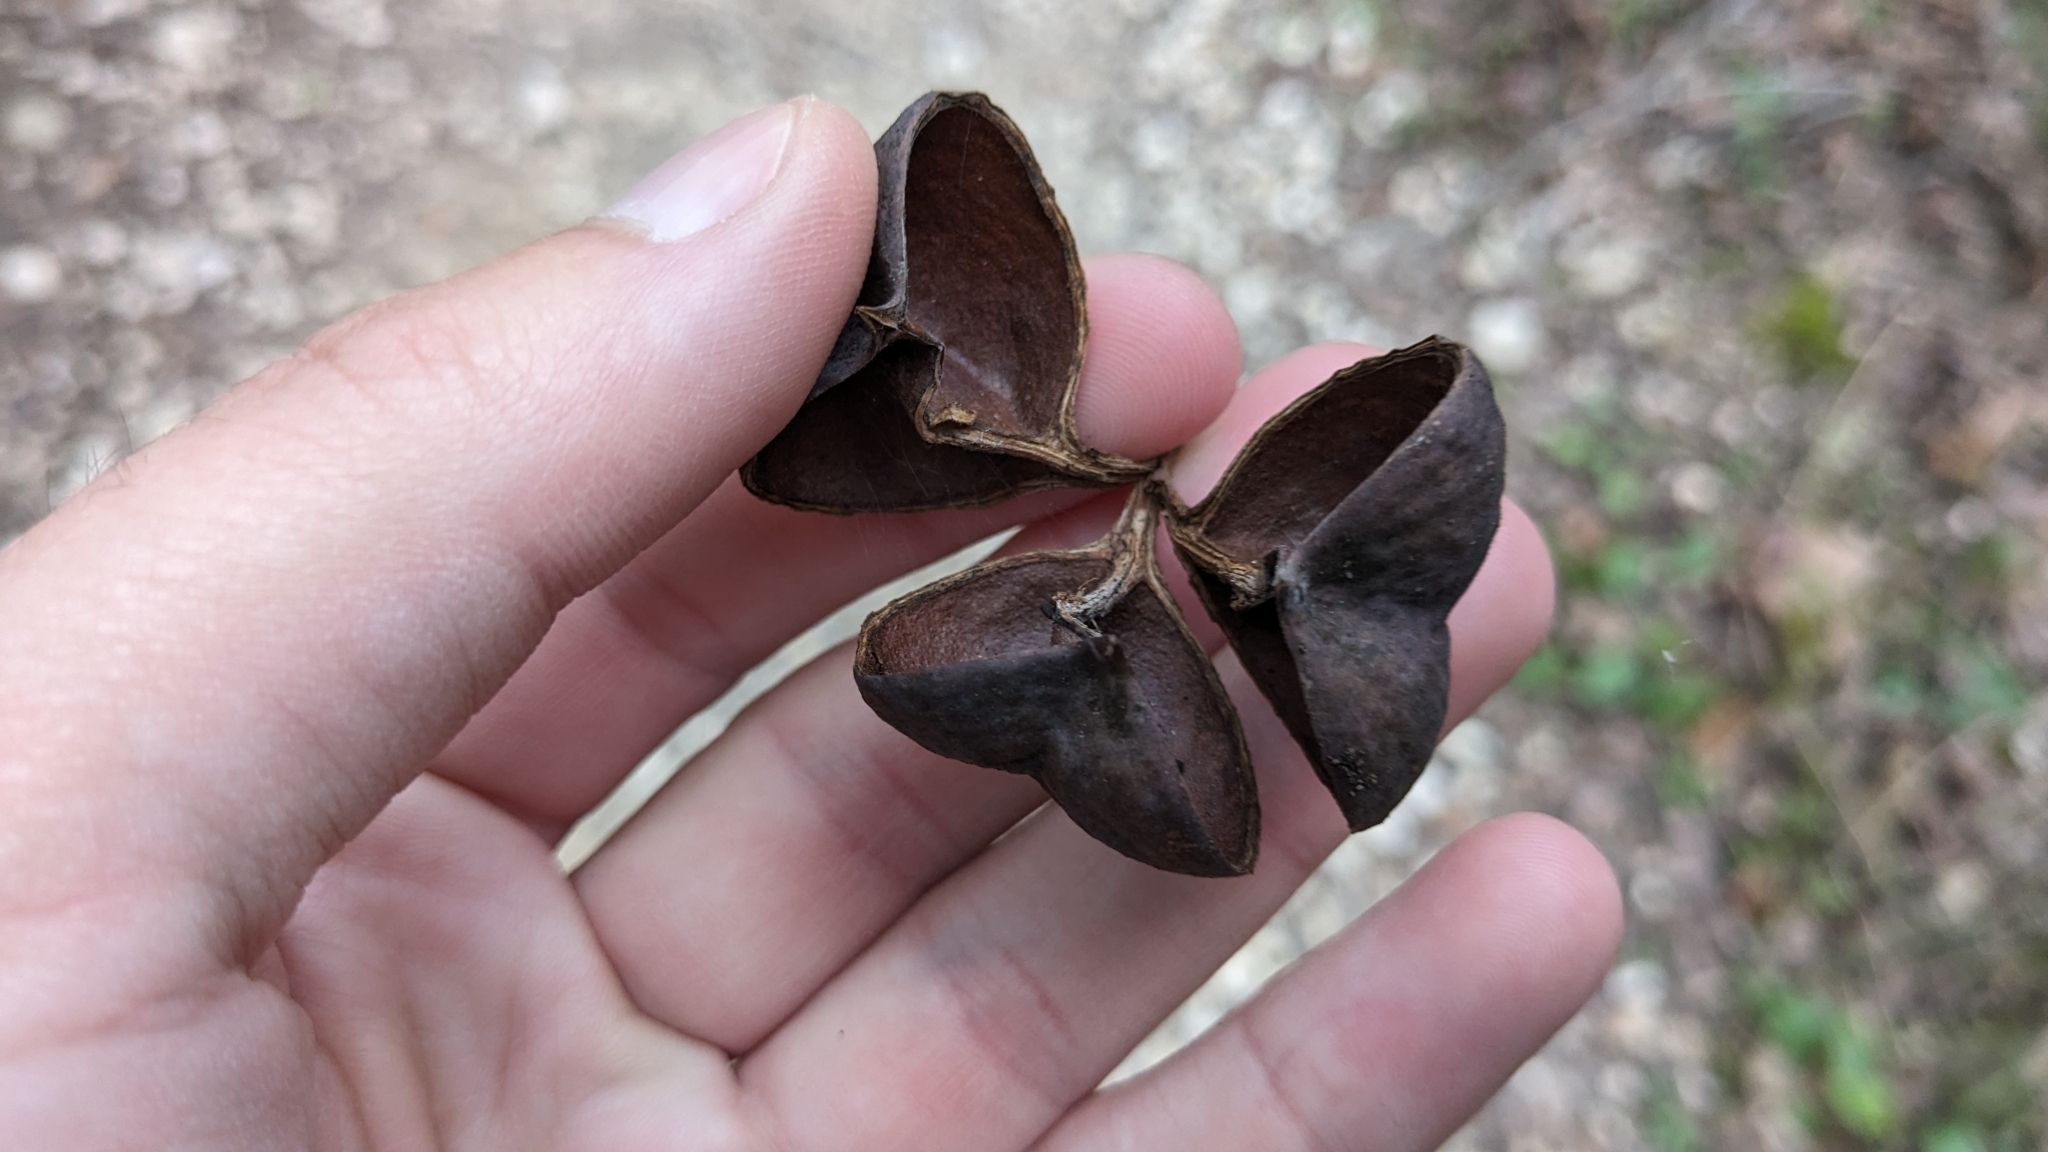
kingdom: Plantae
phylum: Tracheophyta
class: Magnoliopsida
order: Sapindales
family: Sapindaceae
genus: Ungnadia
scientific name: Ungnadia speciosa
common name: Texas-buckeye
